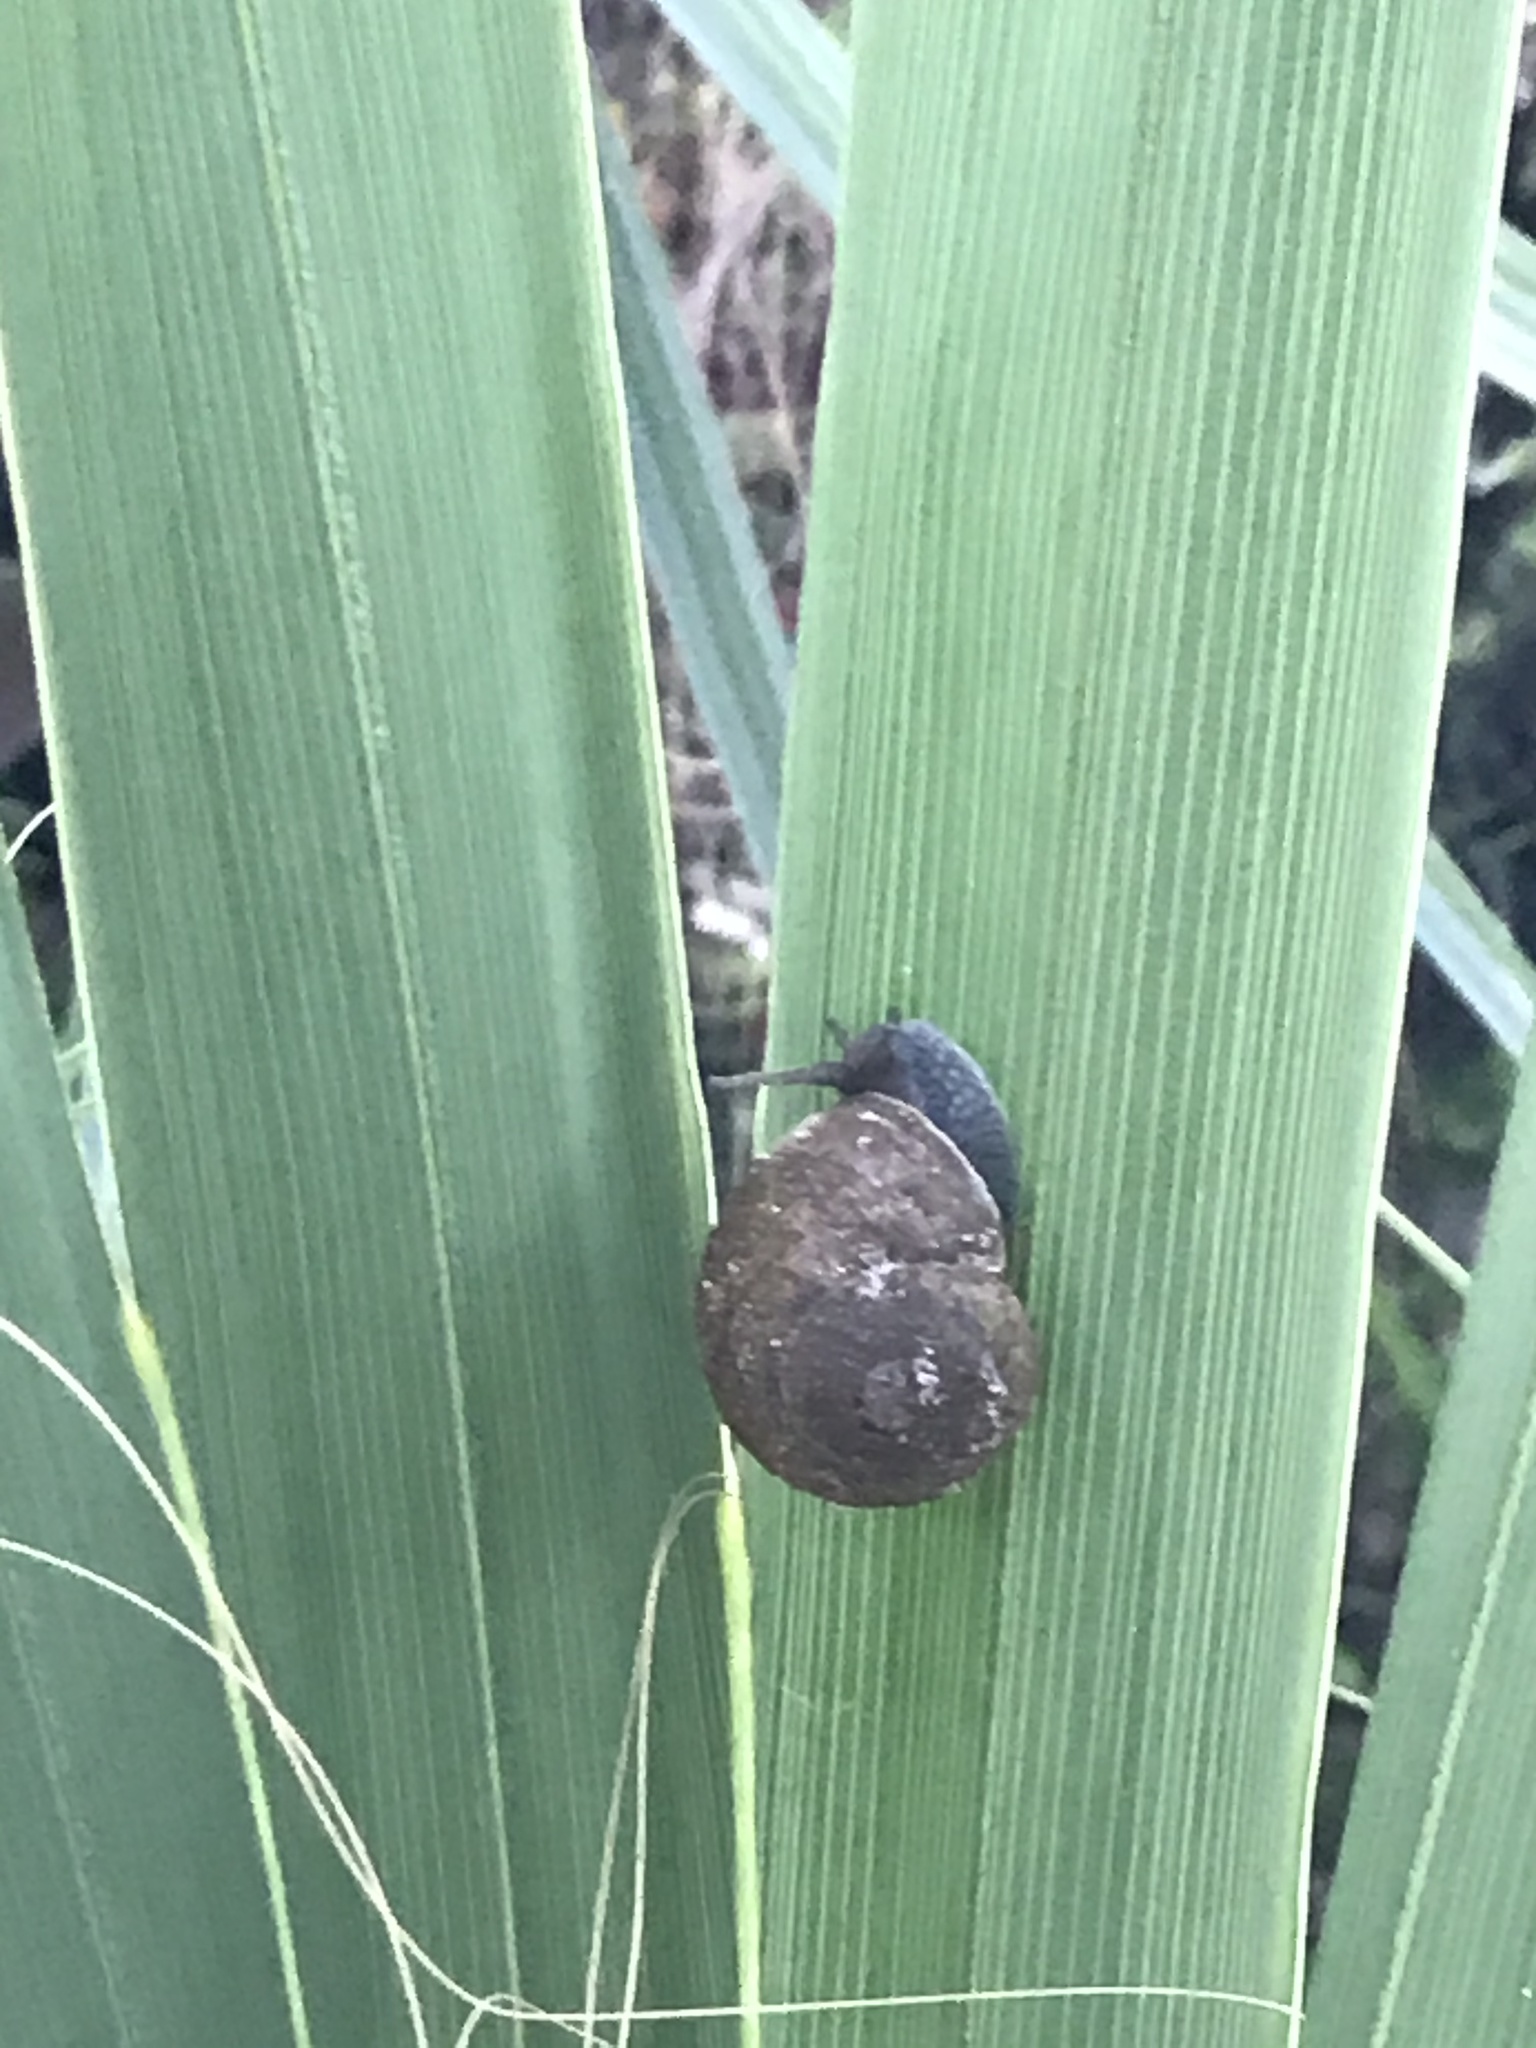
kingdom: Animalia
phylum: Mollusca
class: Gastropoda
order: Stylommatophora
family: Zachrysiidae
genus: Zachrysia
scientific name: Zachrysia provisoria
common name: Garden zachrysia
